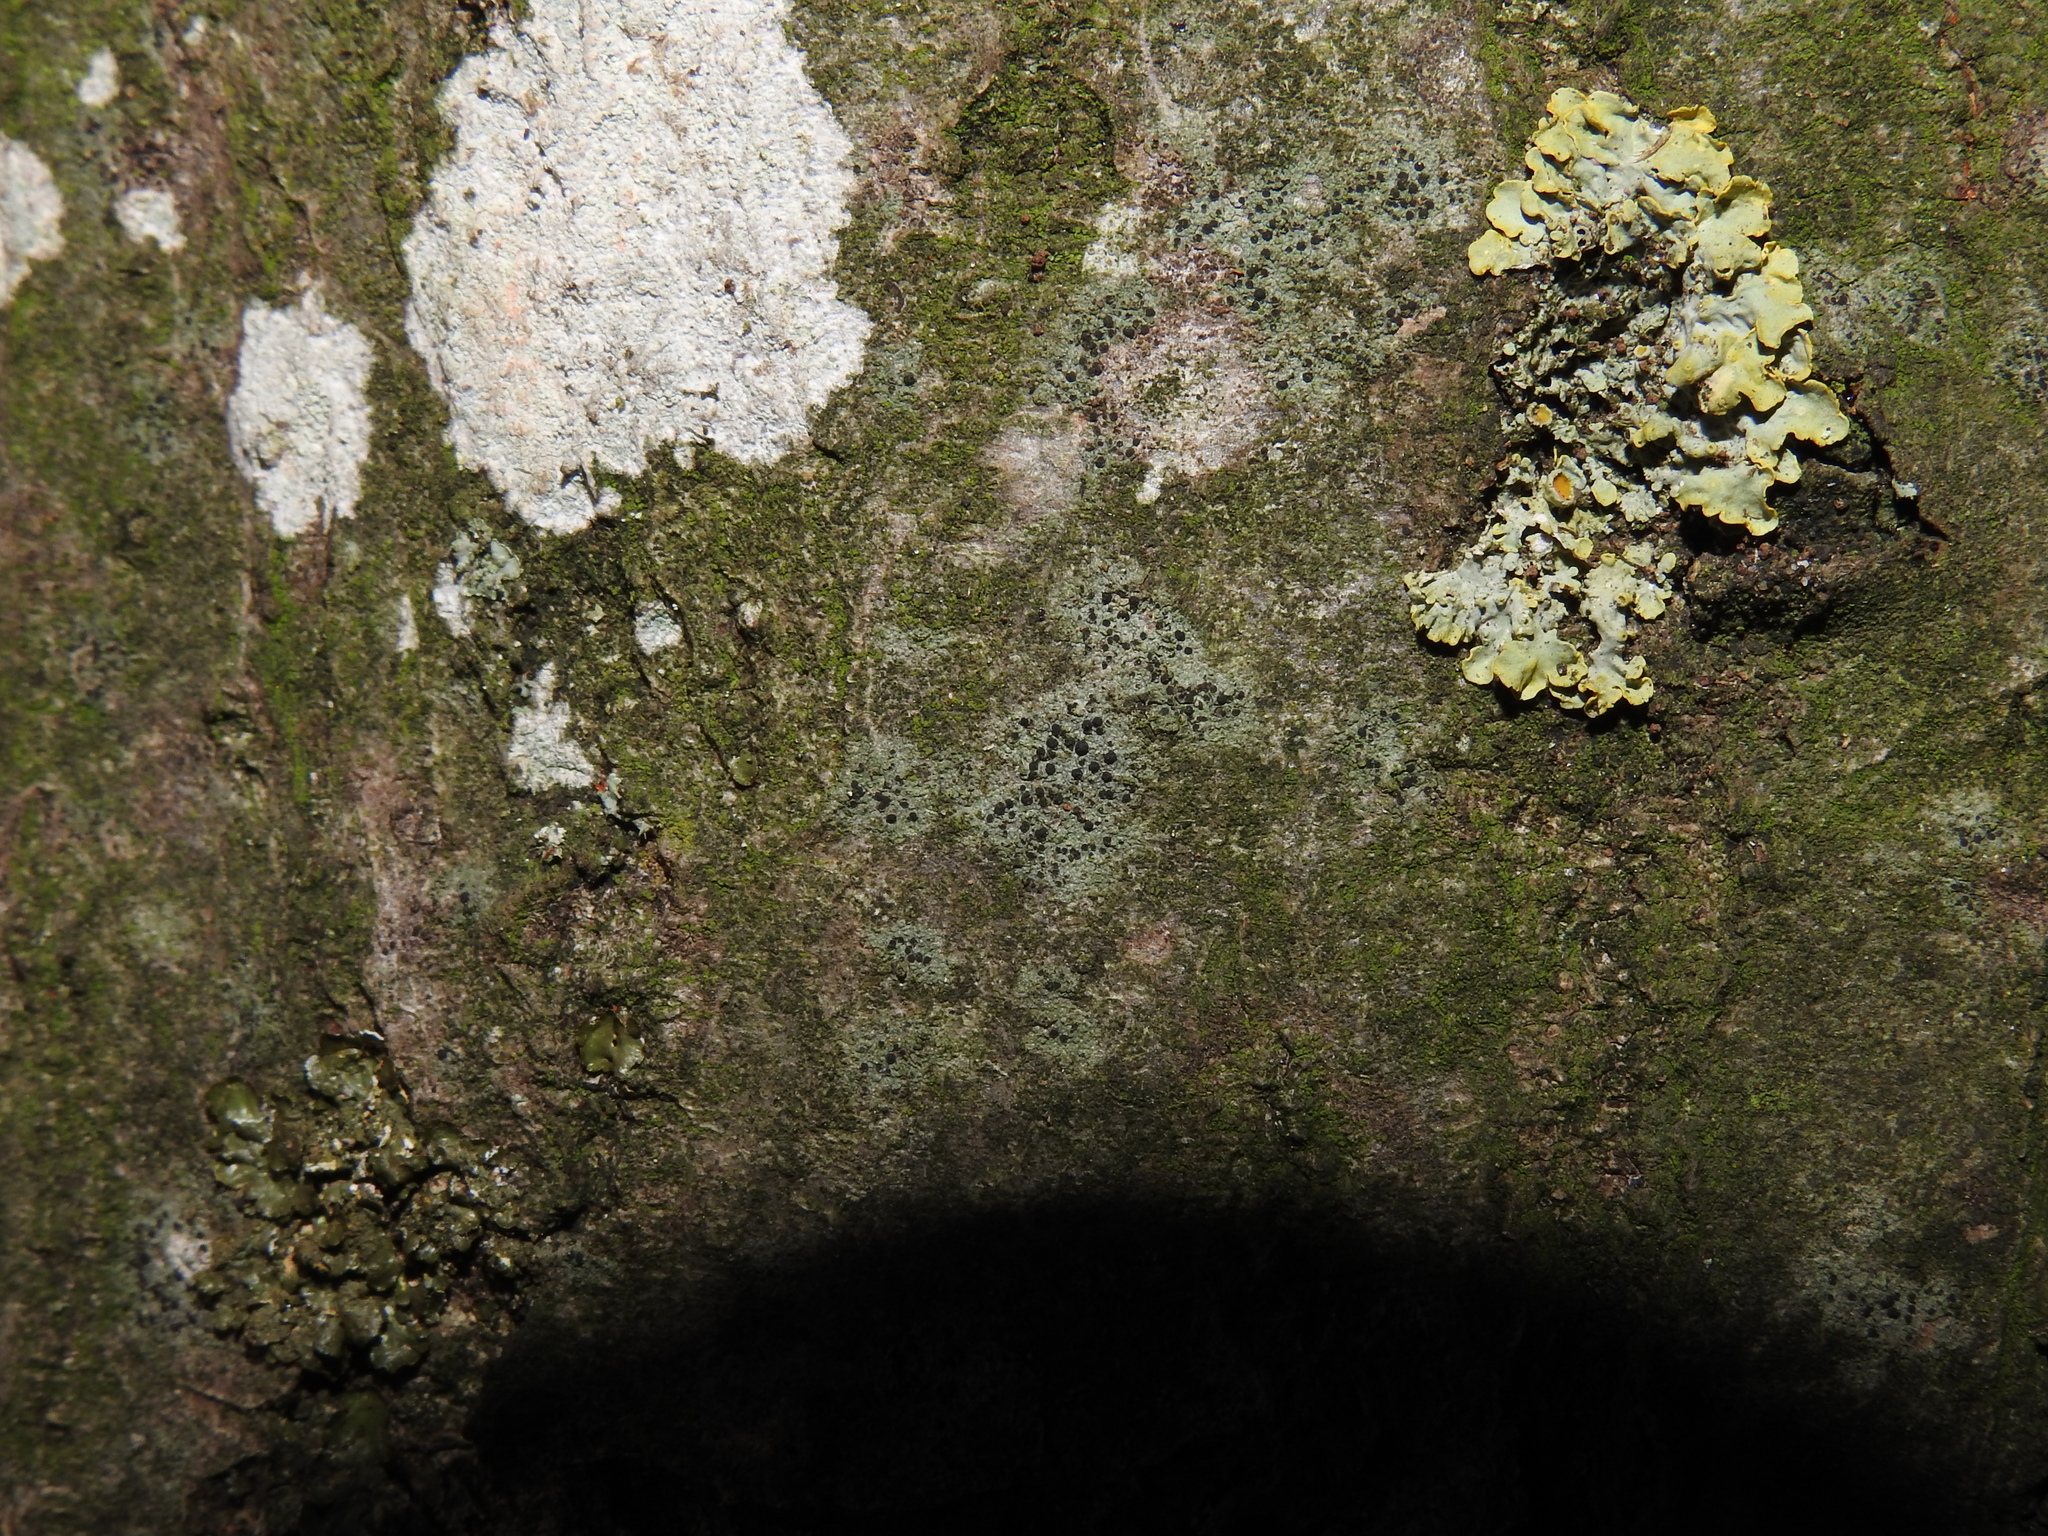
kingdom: Fungi
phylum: Ascomycota
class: Lecanoromycetes
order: Lecanorales
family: Lecanoraceae
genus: Lecidella
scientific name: Lecidella elaeochroma
